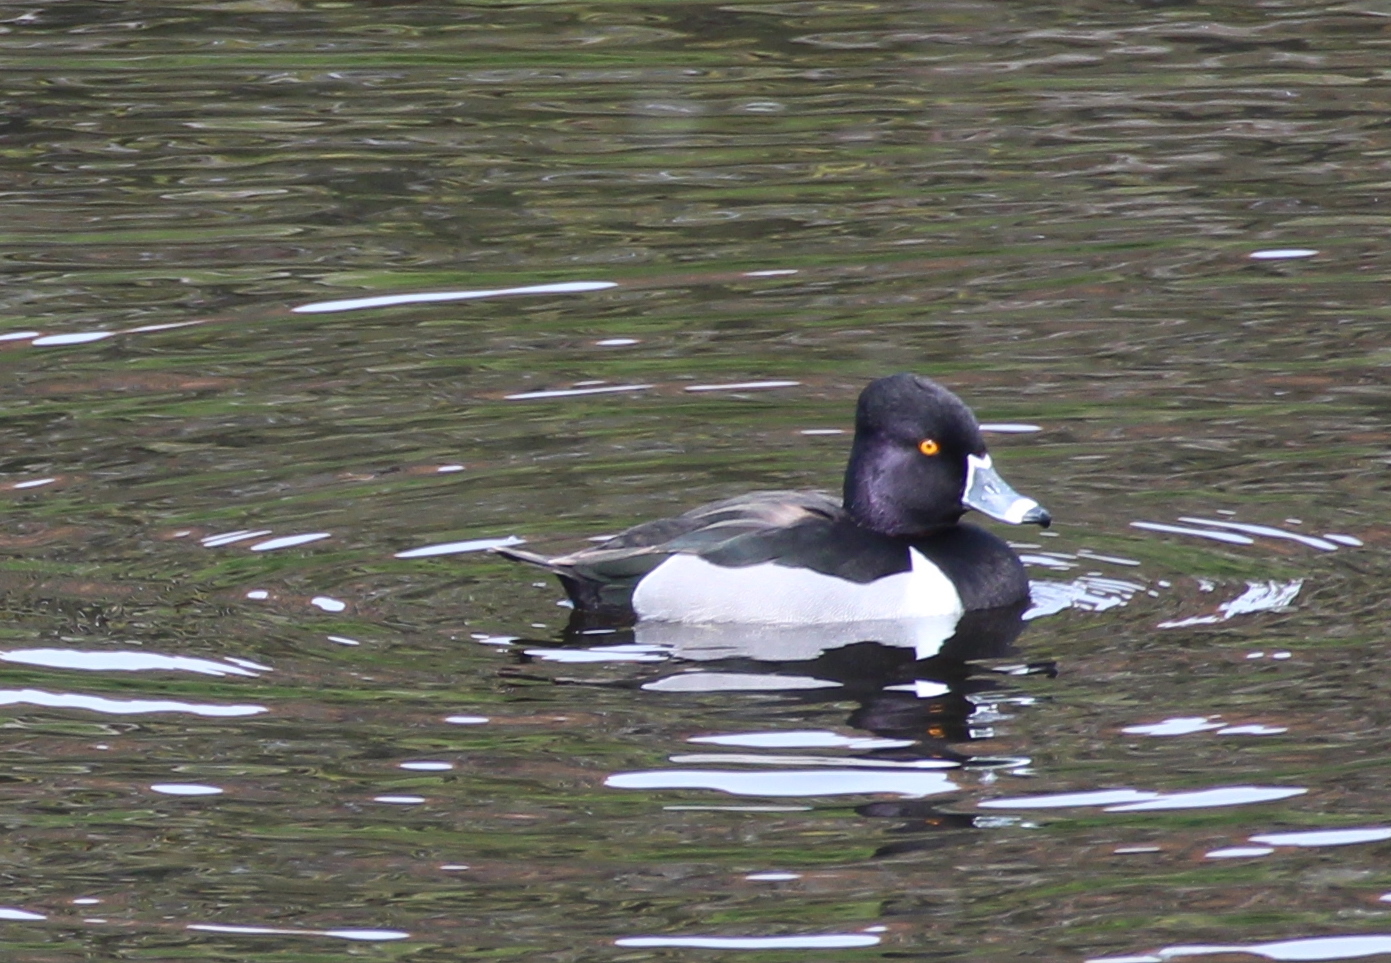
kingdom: Animalia
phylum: Chordata
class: Aves
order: Anseriformes
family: Anatidae
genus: Aythya
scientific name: Aythya collaris
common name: Ring-necked duck
